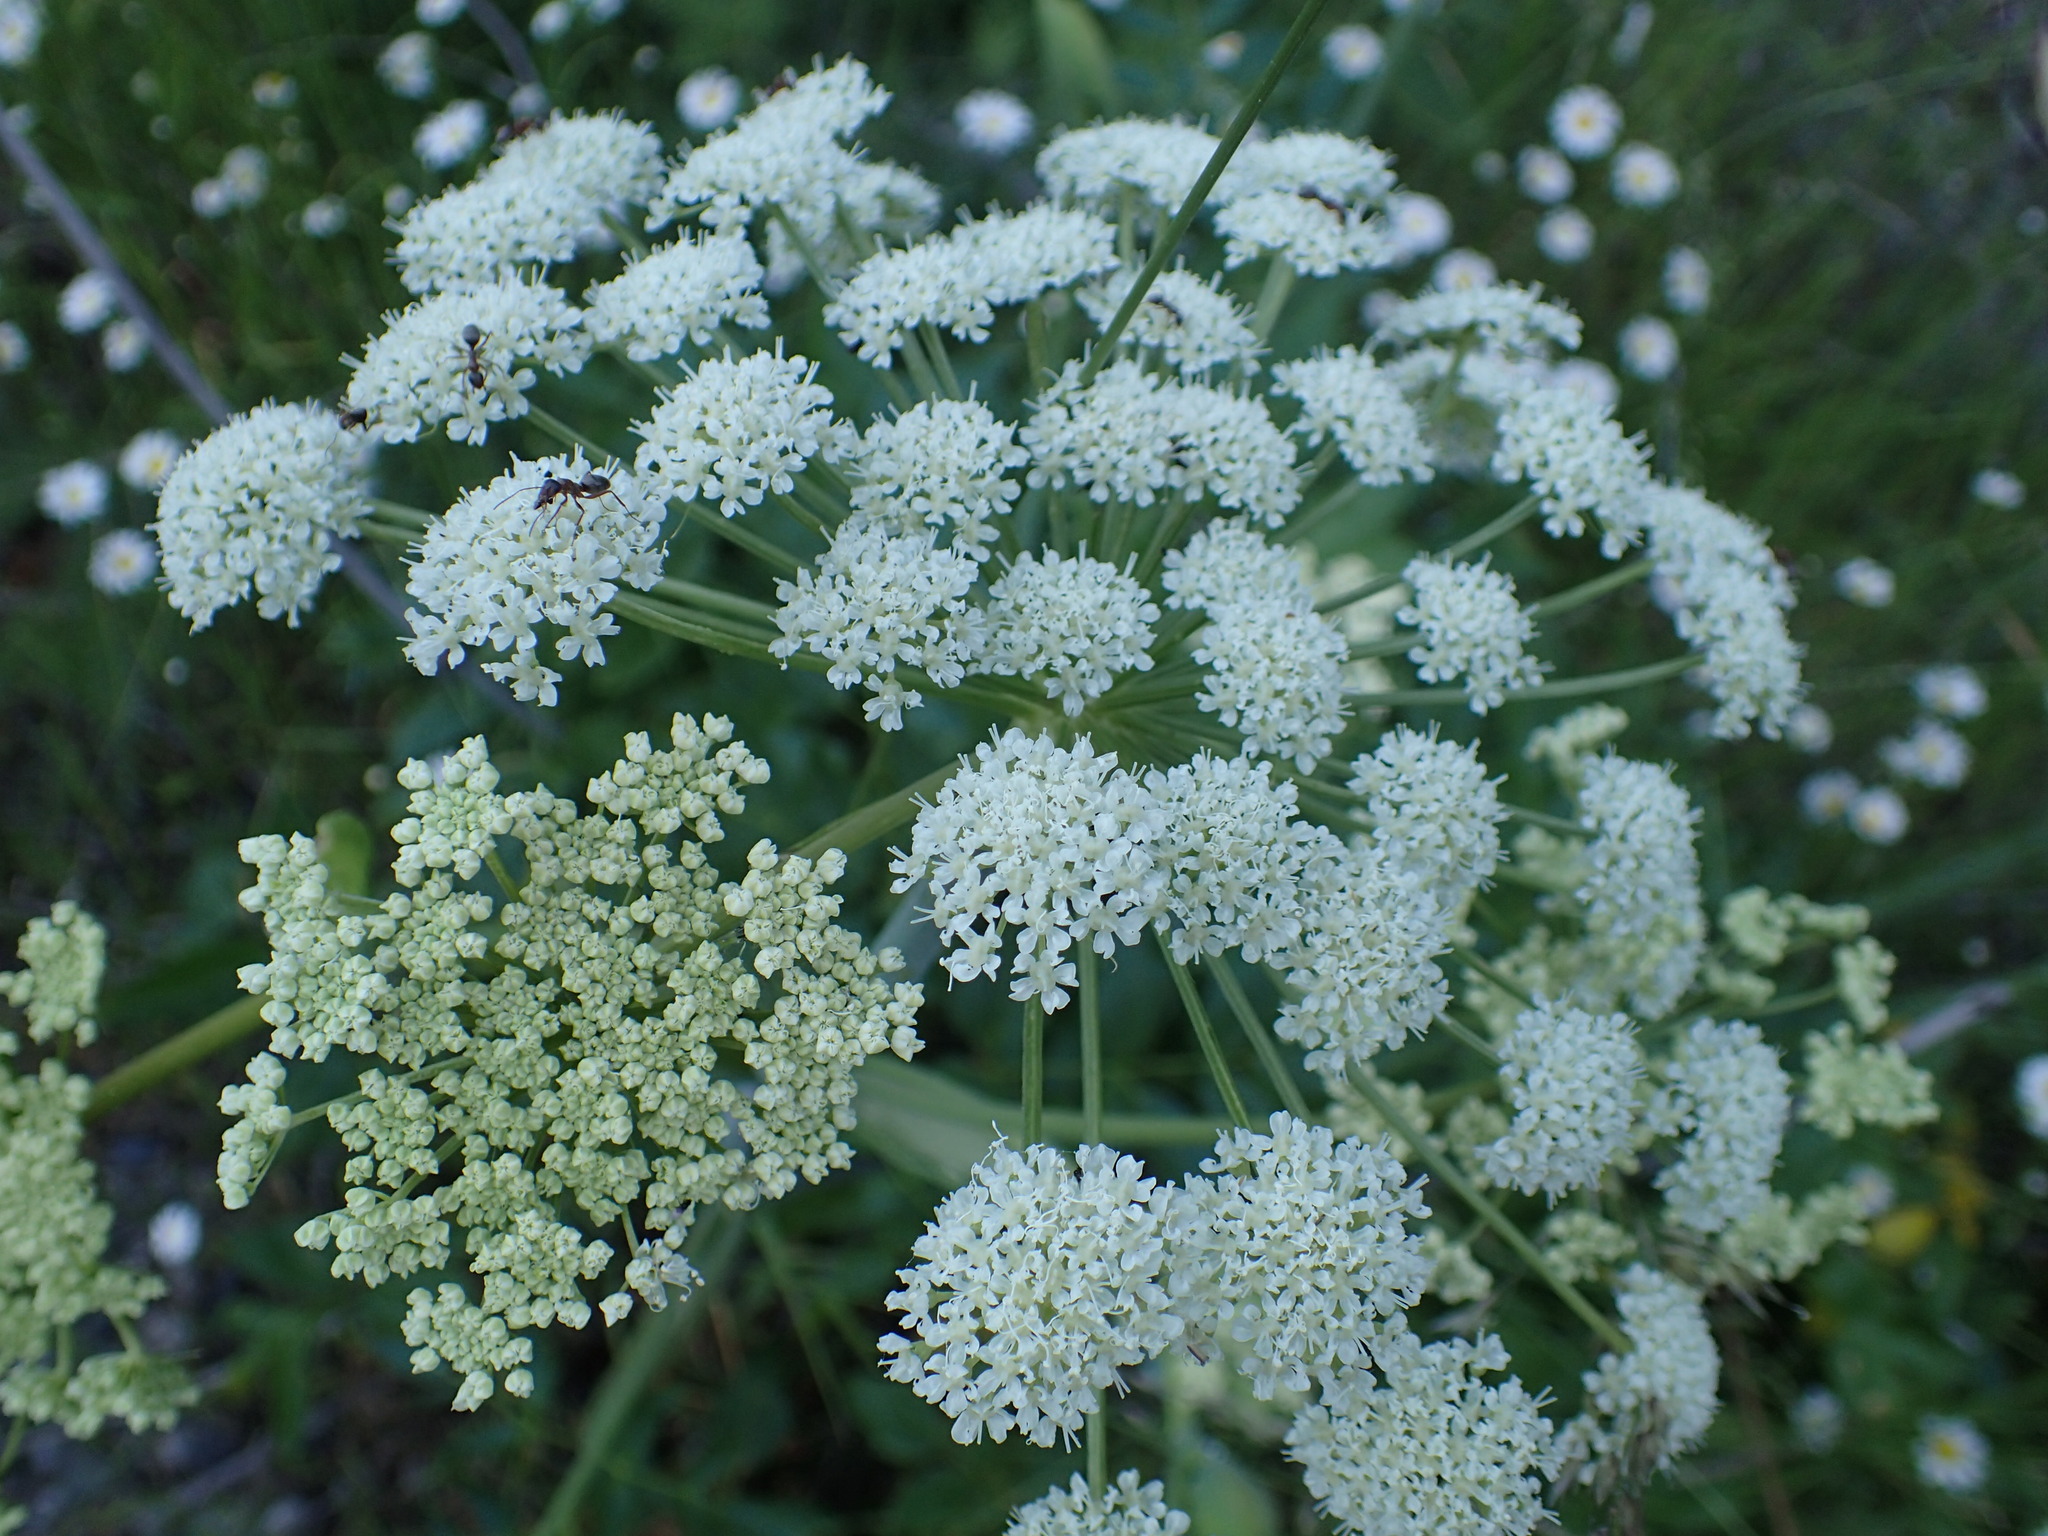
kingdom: Plantae
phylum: Tracheophyta
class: Magnoliopsida
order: Apiales
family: Apiaceae
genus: Angelica
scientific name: Angelica arguta
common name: Lyall's angelica
